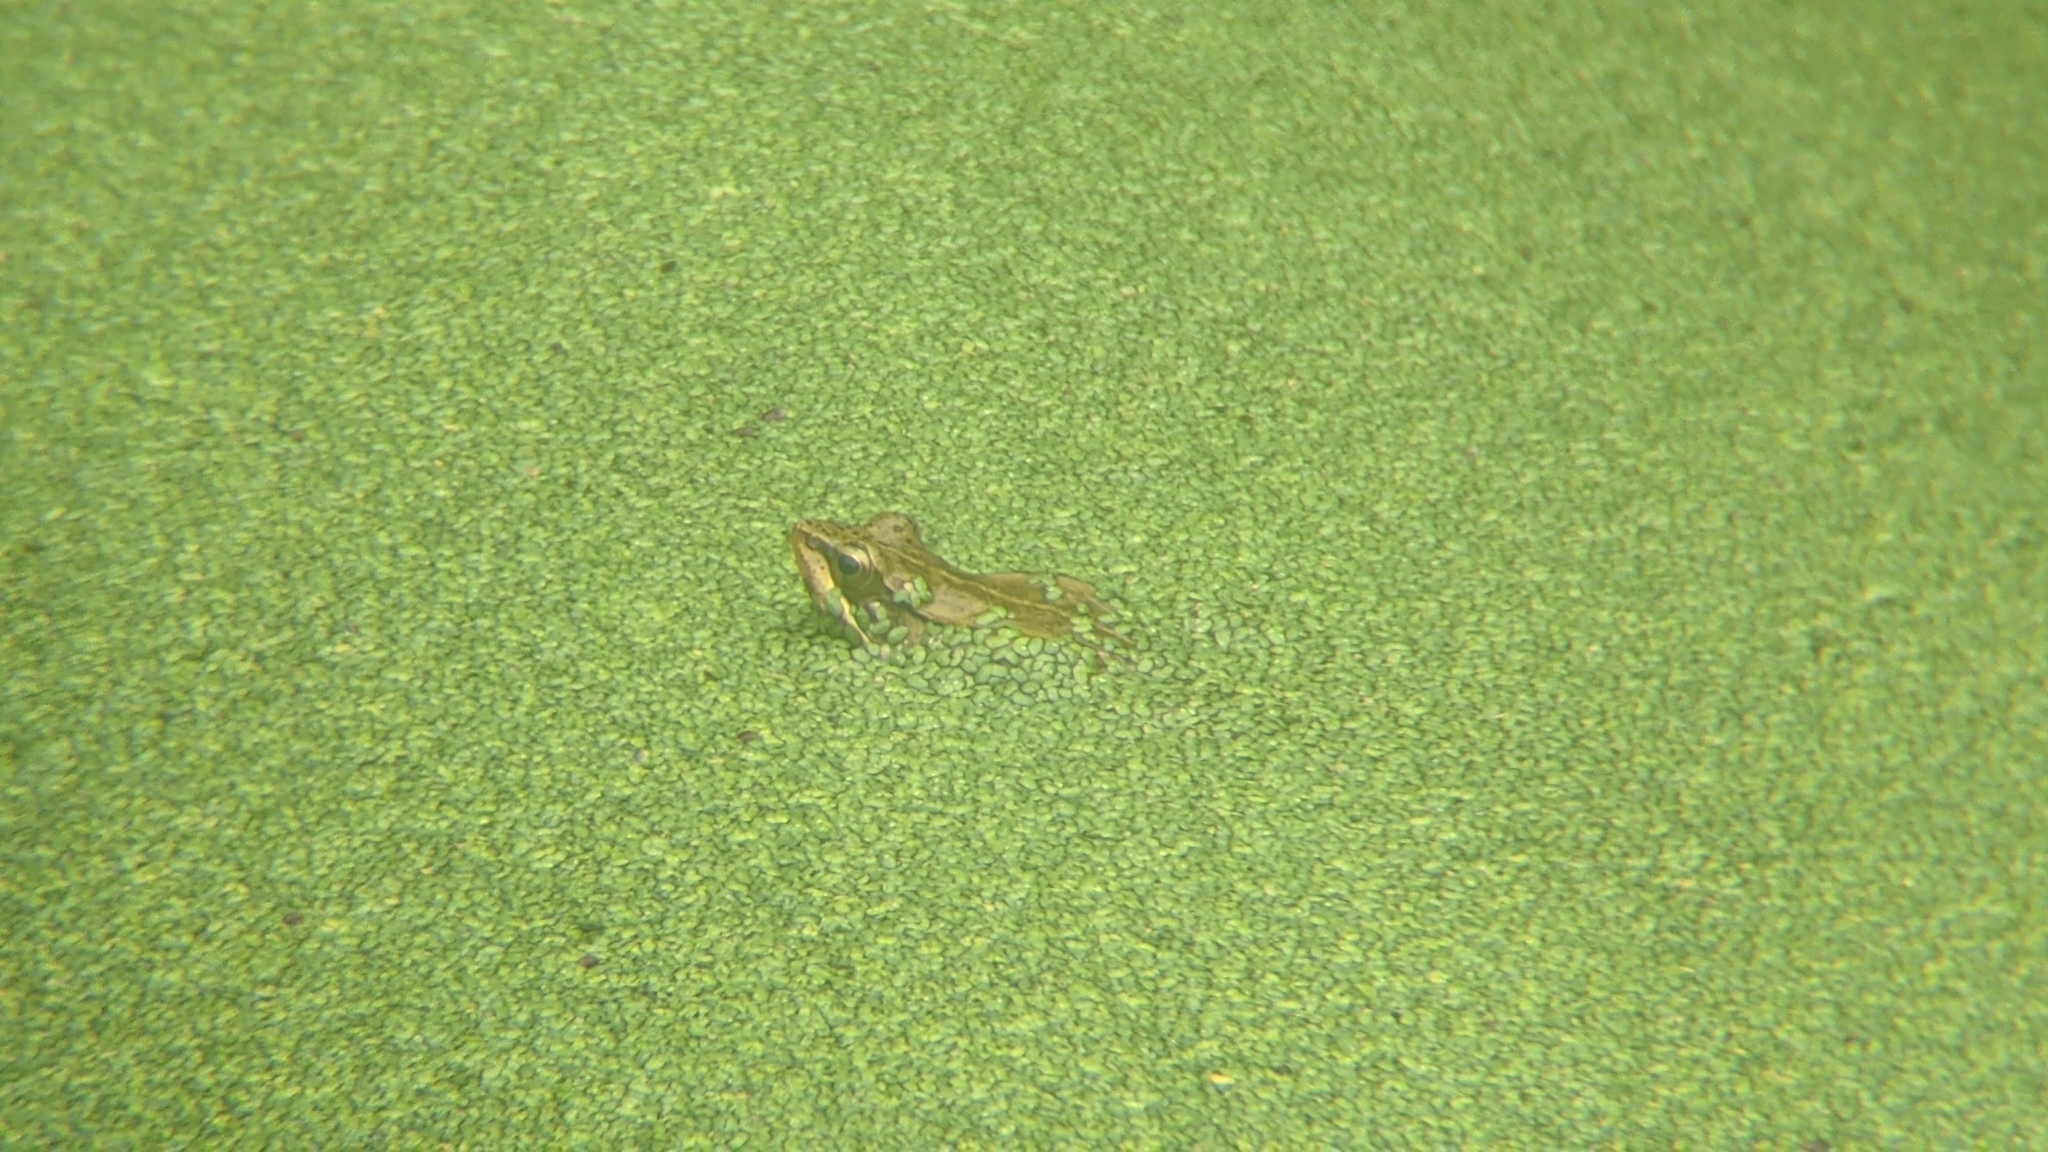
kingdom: Animalia
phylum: Chordata
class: Amphibia
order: Anura
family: Ranidae
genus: Nidirana
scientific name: Nidirana adenopleura
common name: Olive frog
